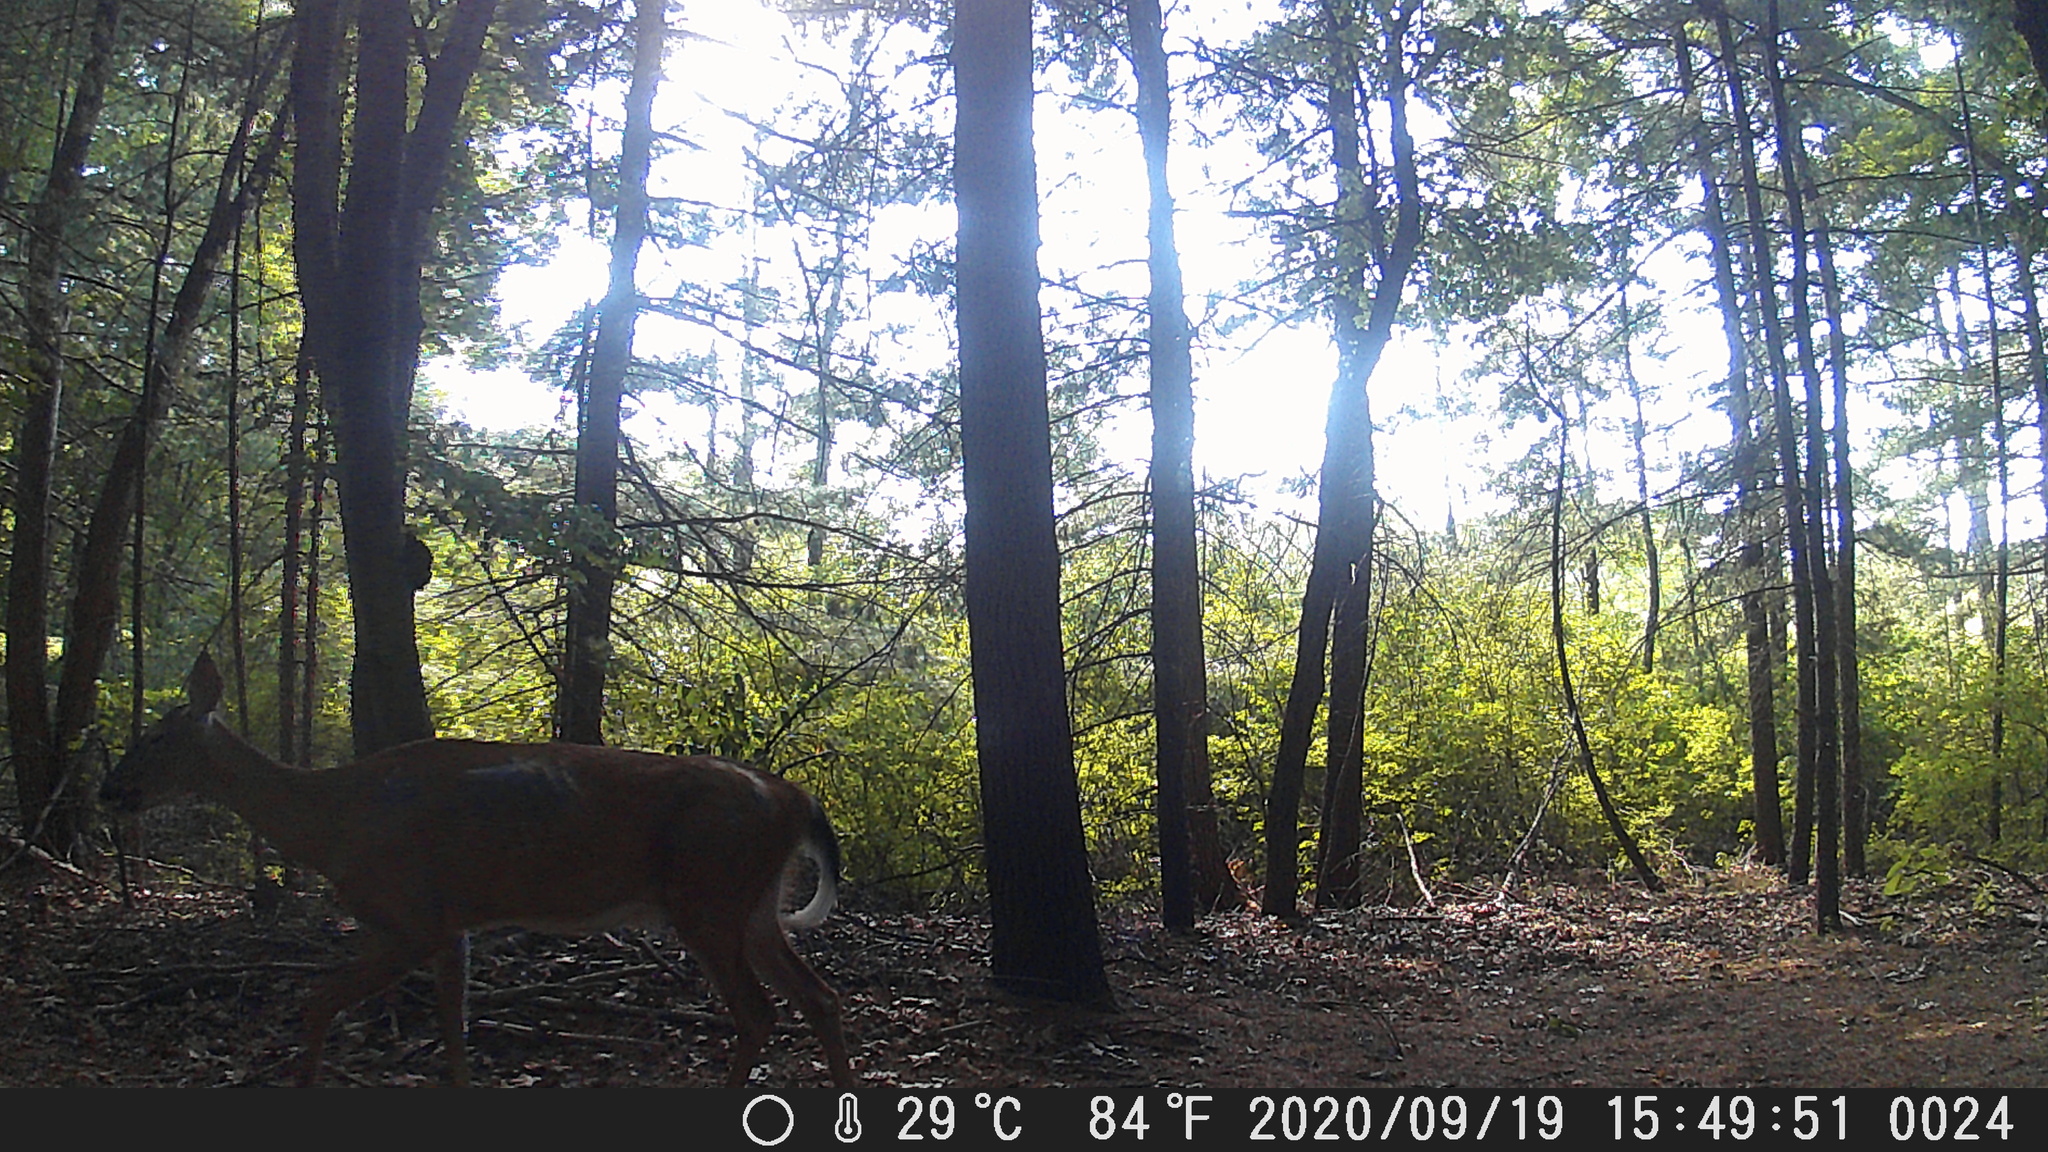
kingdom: Animalia
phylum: Chordata
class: Mammalia
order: Artiodactyla
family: Cervidae
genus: Odocoileus
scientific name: Odocoileus virginianus
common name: White-tailed deer
